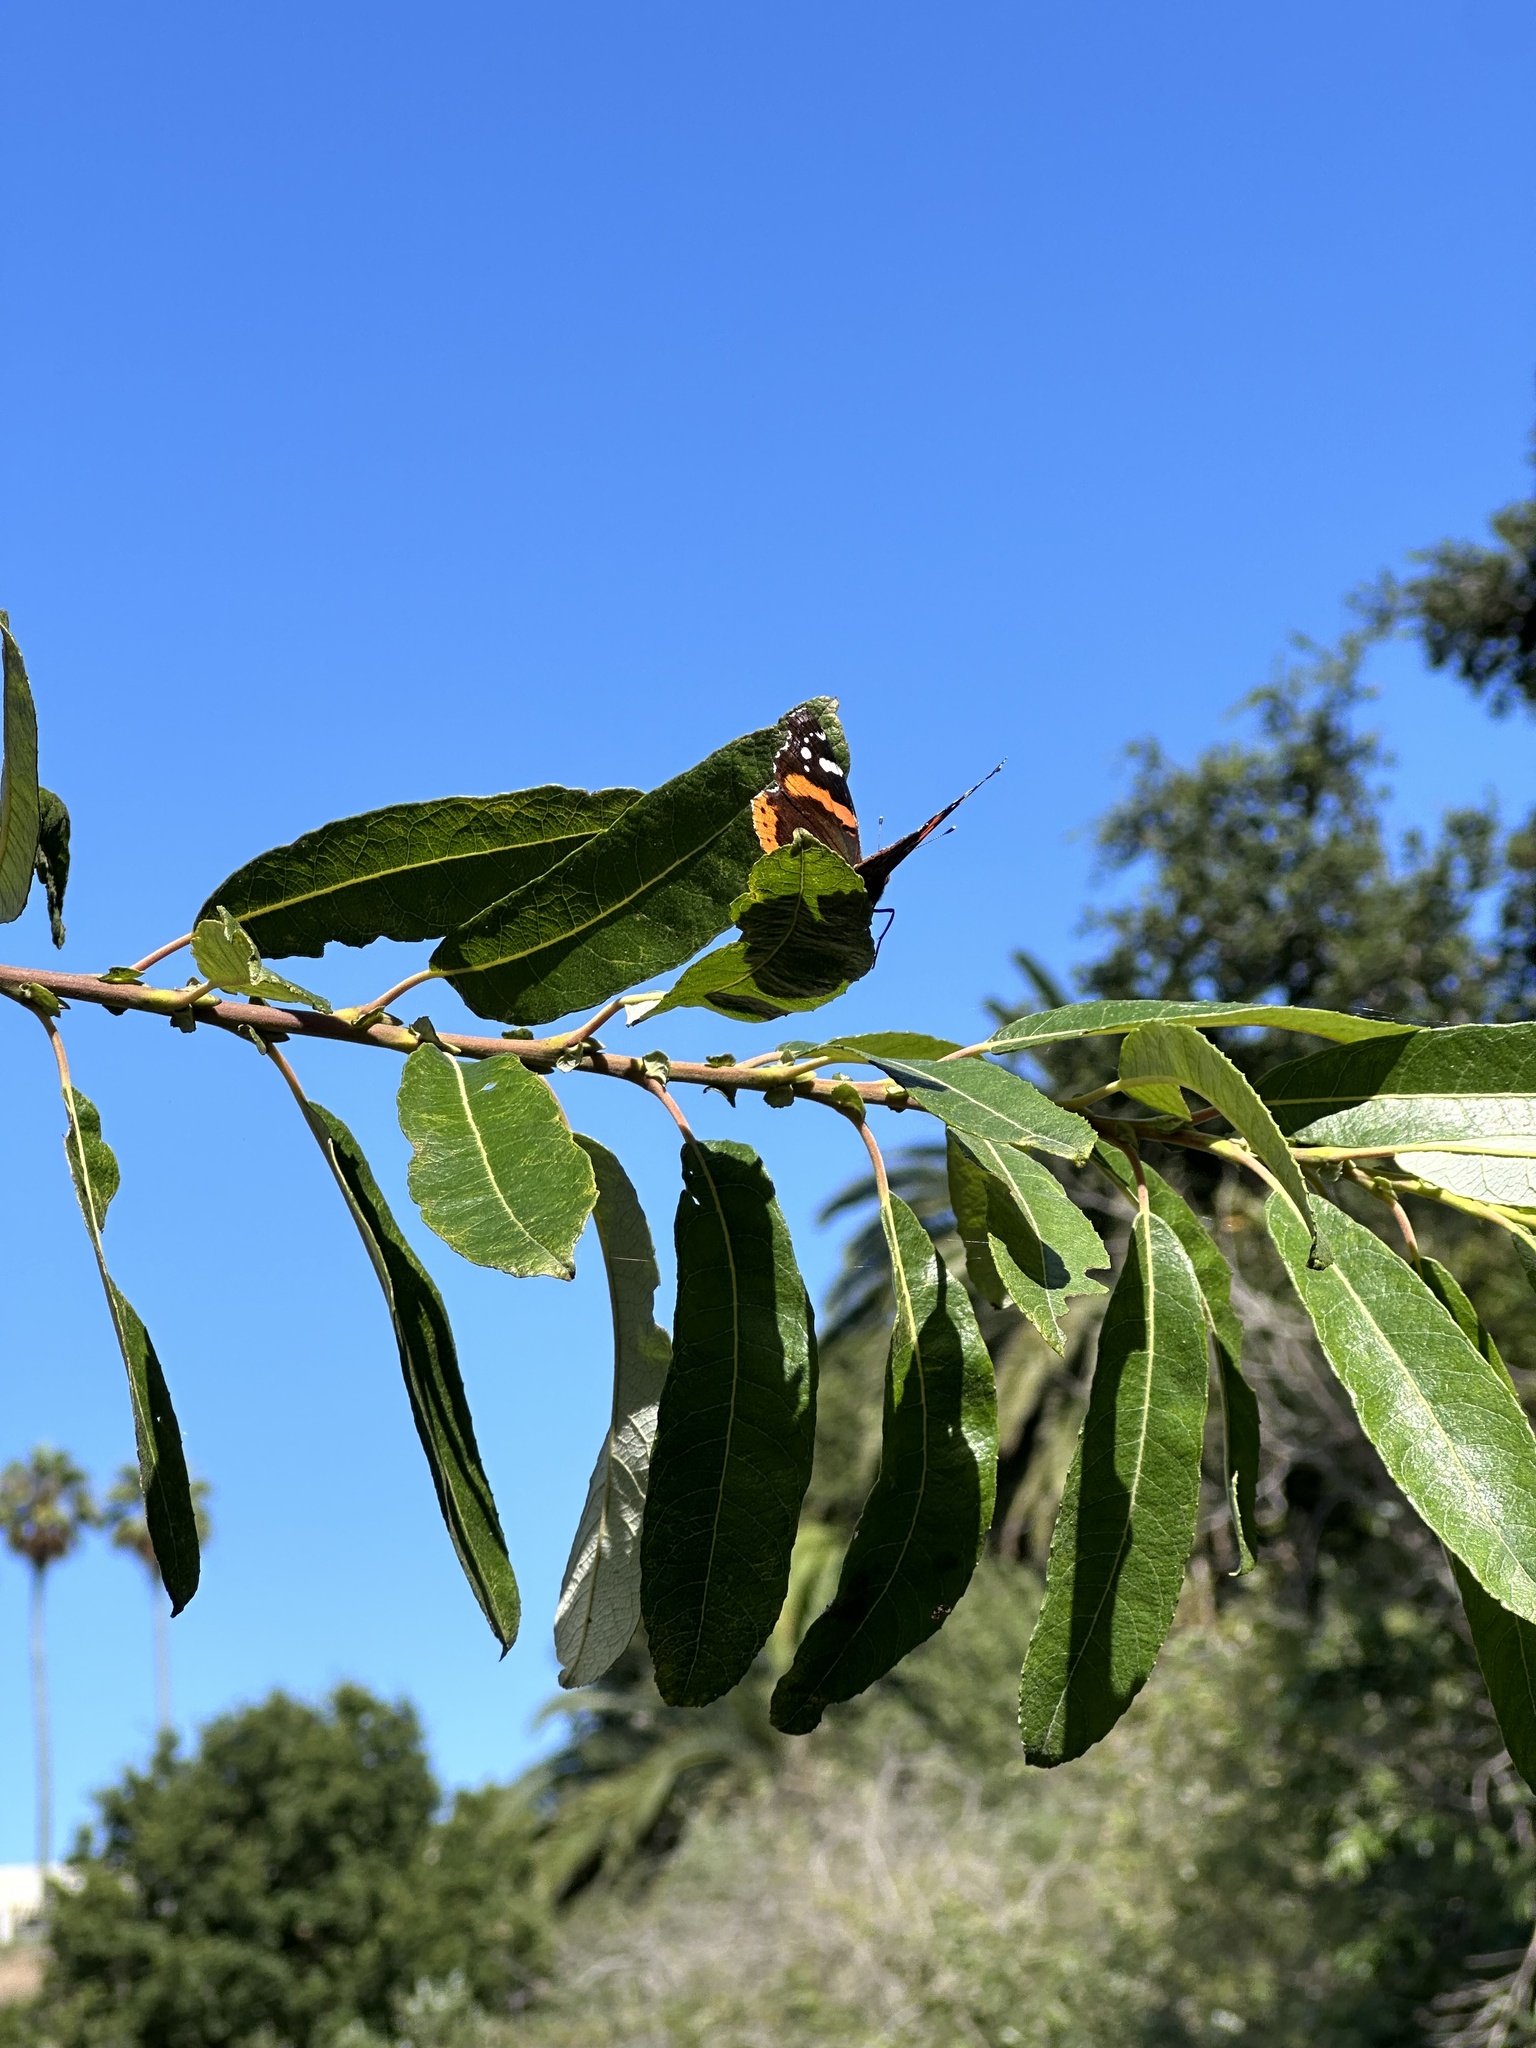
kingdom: Animalia
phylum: Arthropoda
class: Insecta
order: Lepidoptera
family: Nymphalidae
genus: Vanessa
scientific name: Vanessa atalanta
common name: Red admiral
